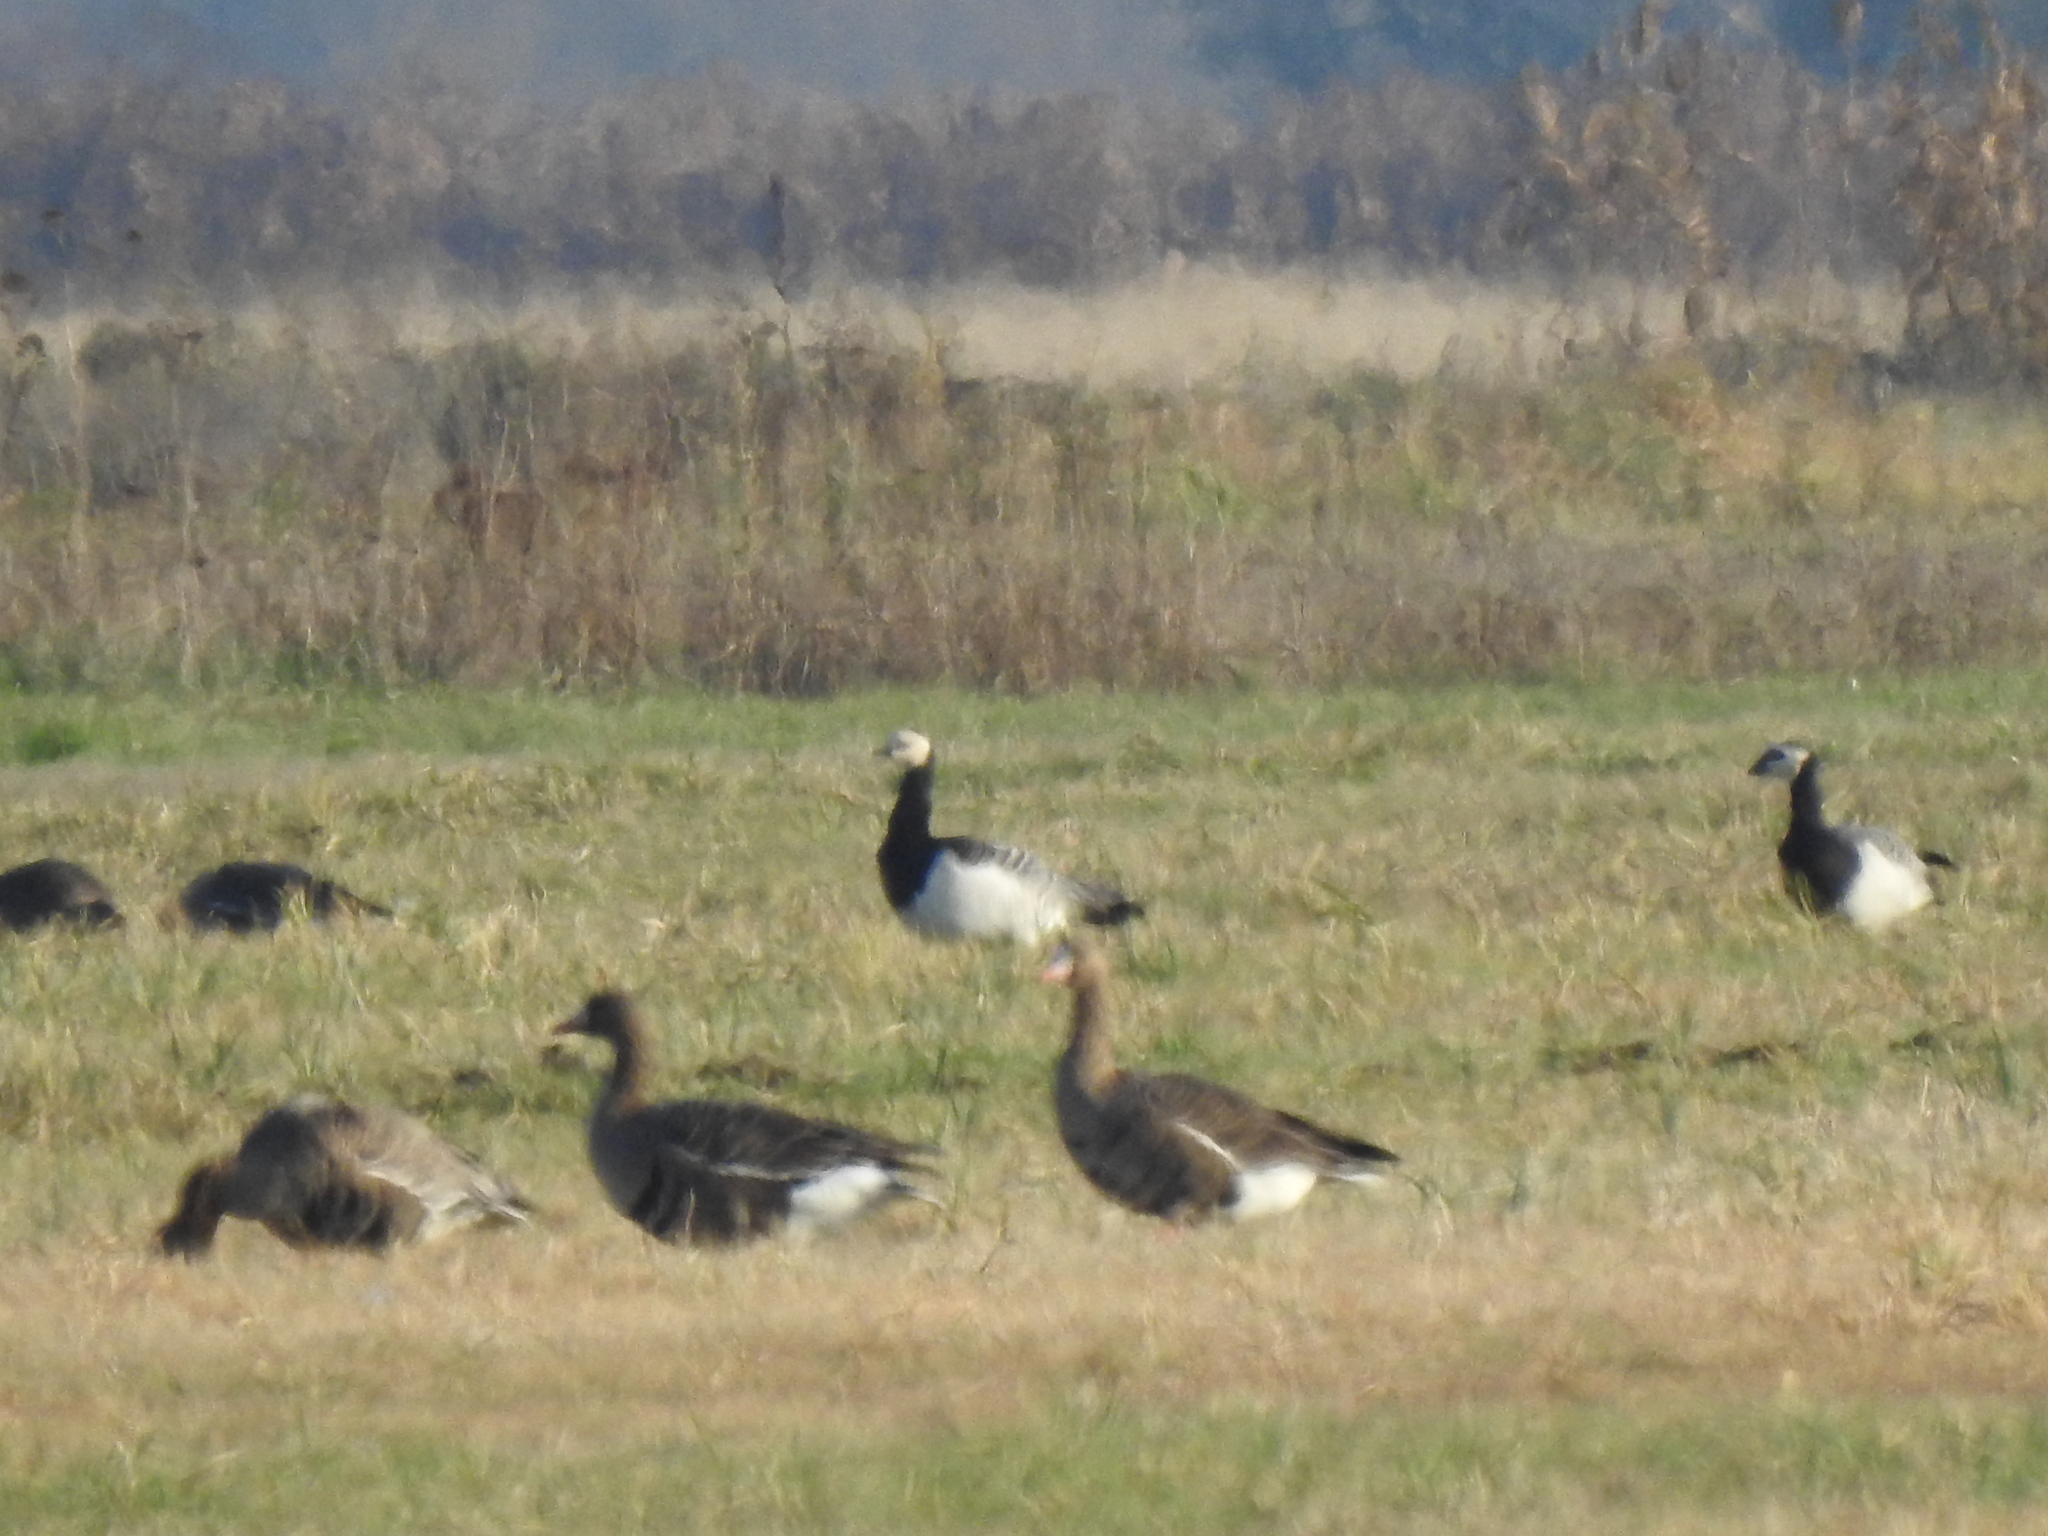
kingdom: Animalia
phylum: Chordata
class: Aves
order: Anseriformes
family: Anatidae
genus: Branta
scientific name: Branta leucopsis
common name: Barnacle goose
